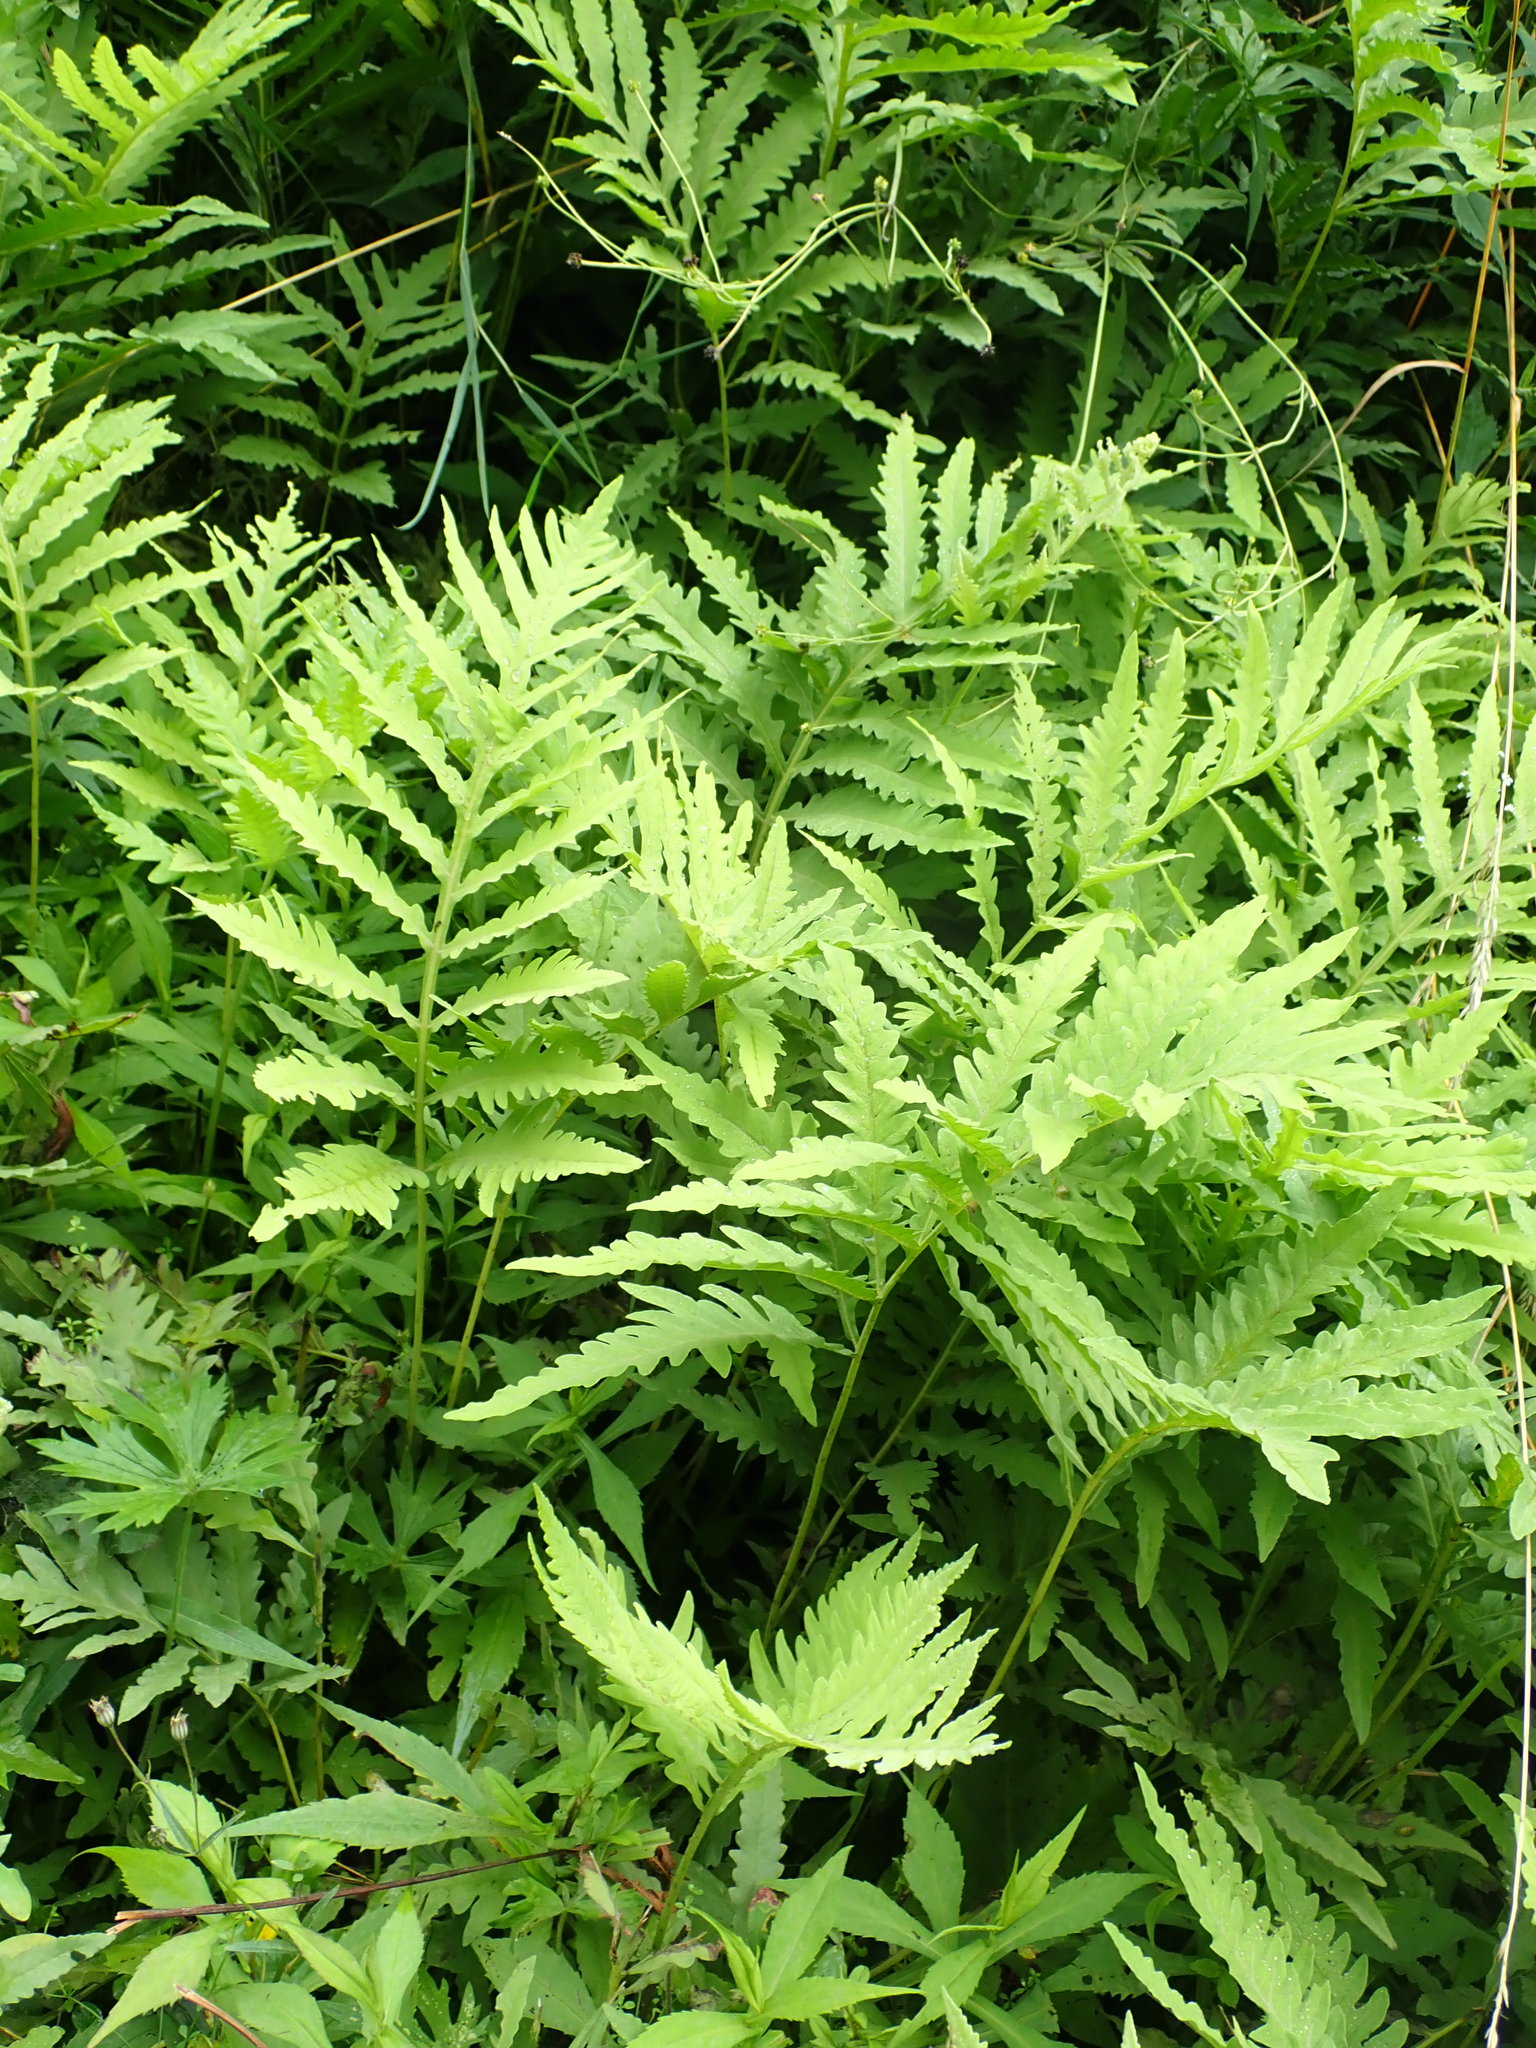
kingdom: Plantae
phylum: Tracheophyta
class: Polypodiopsida
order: Polypodiales
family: Onocleaceae
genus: Onoclea
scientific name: Onoclea sensibilis
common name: Sensitive fern
